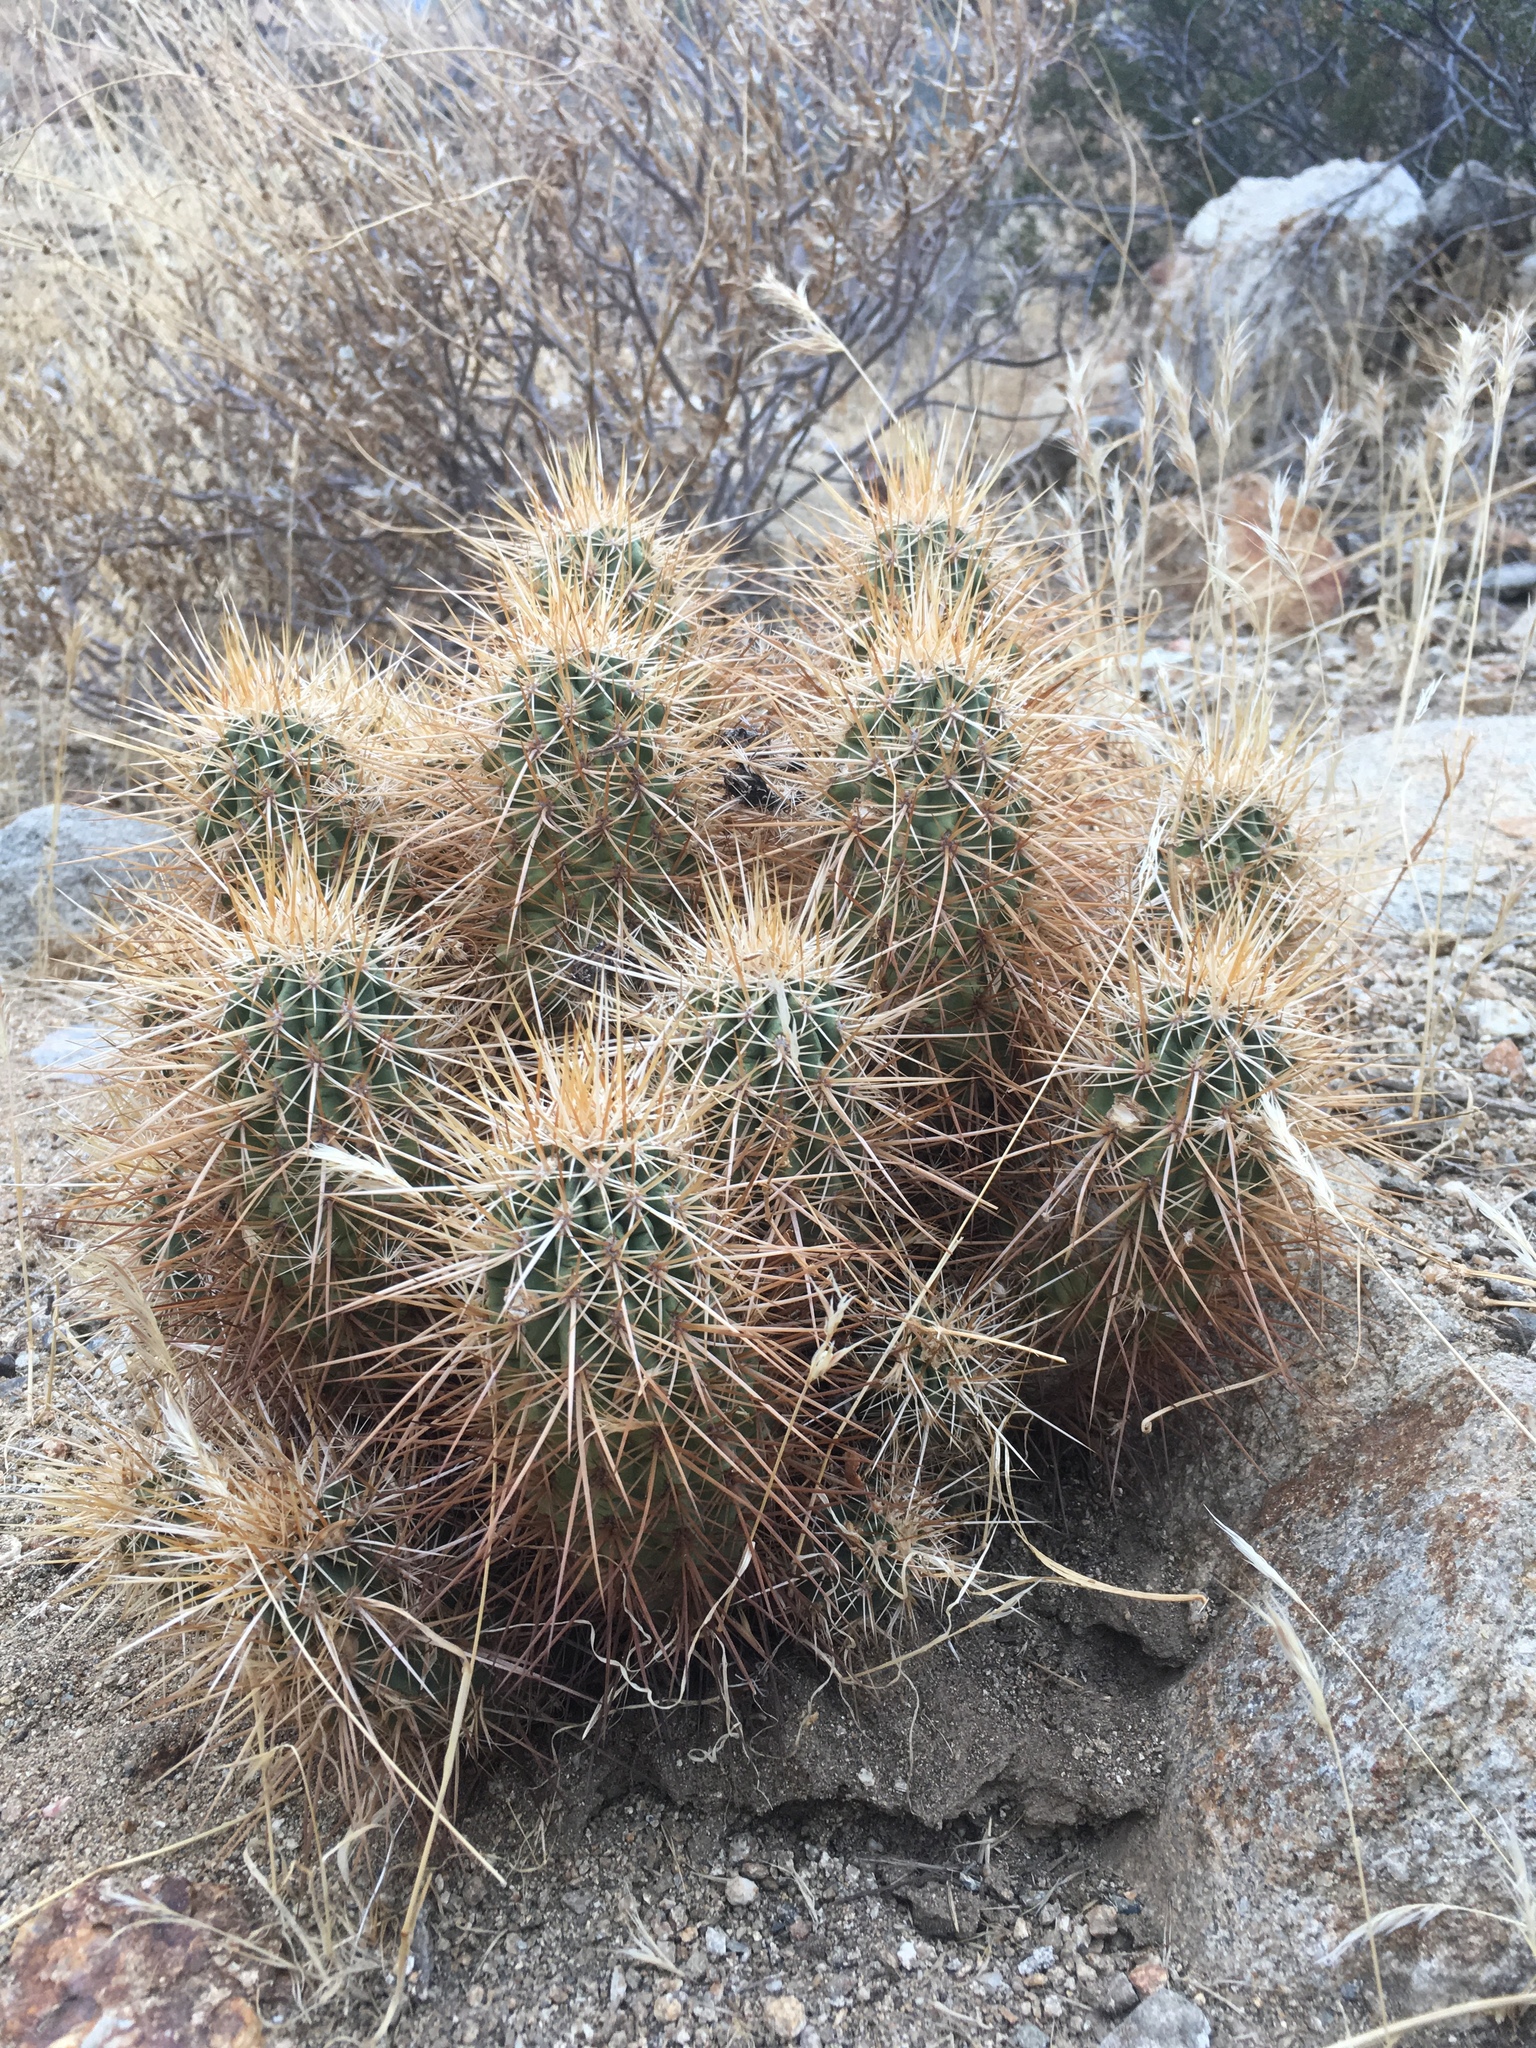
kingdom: Plantae
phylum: Tracheophyta
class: Magnoliopsida
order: Caryophyllales
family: Cactaceae
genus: Echinocereus
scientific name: Echinocereus engelmannii
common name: Engelmann's hedgehog cactus
